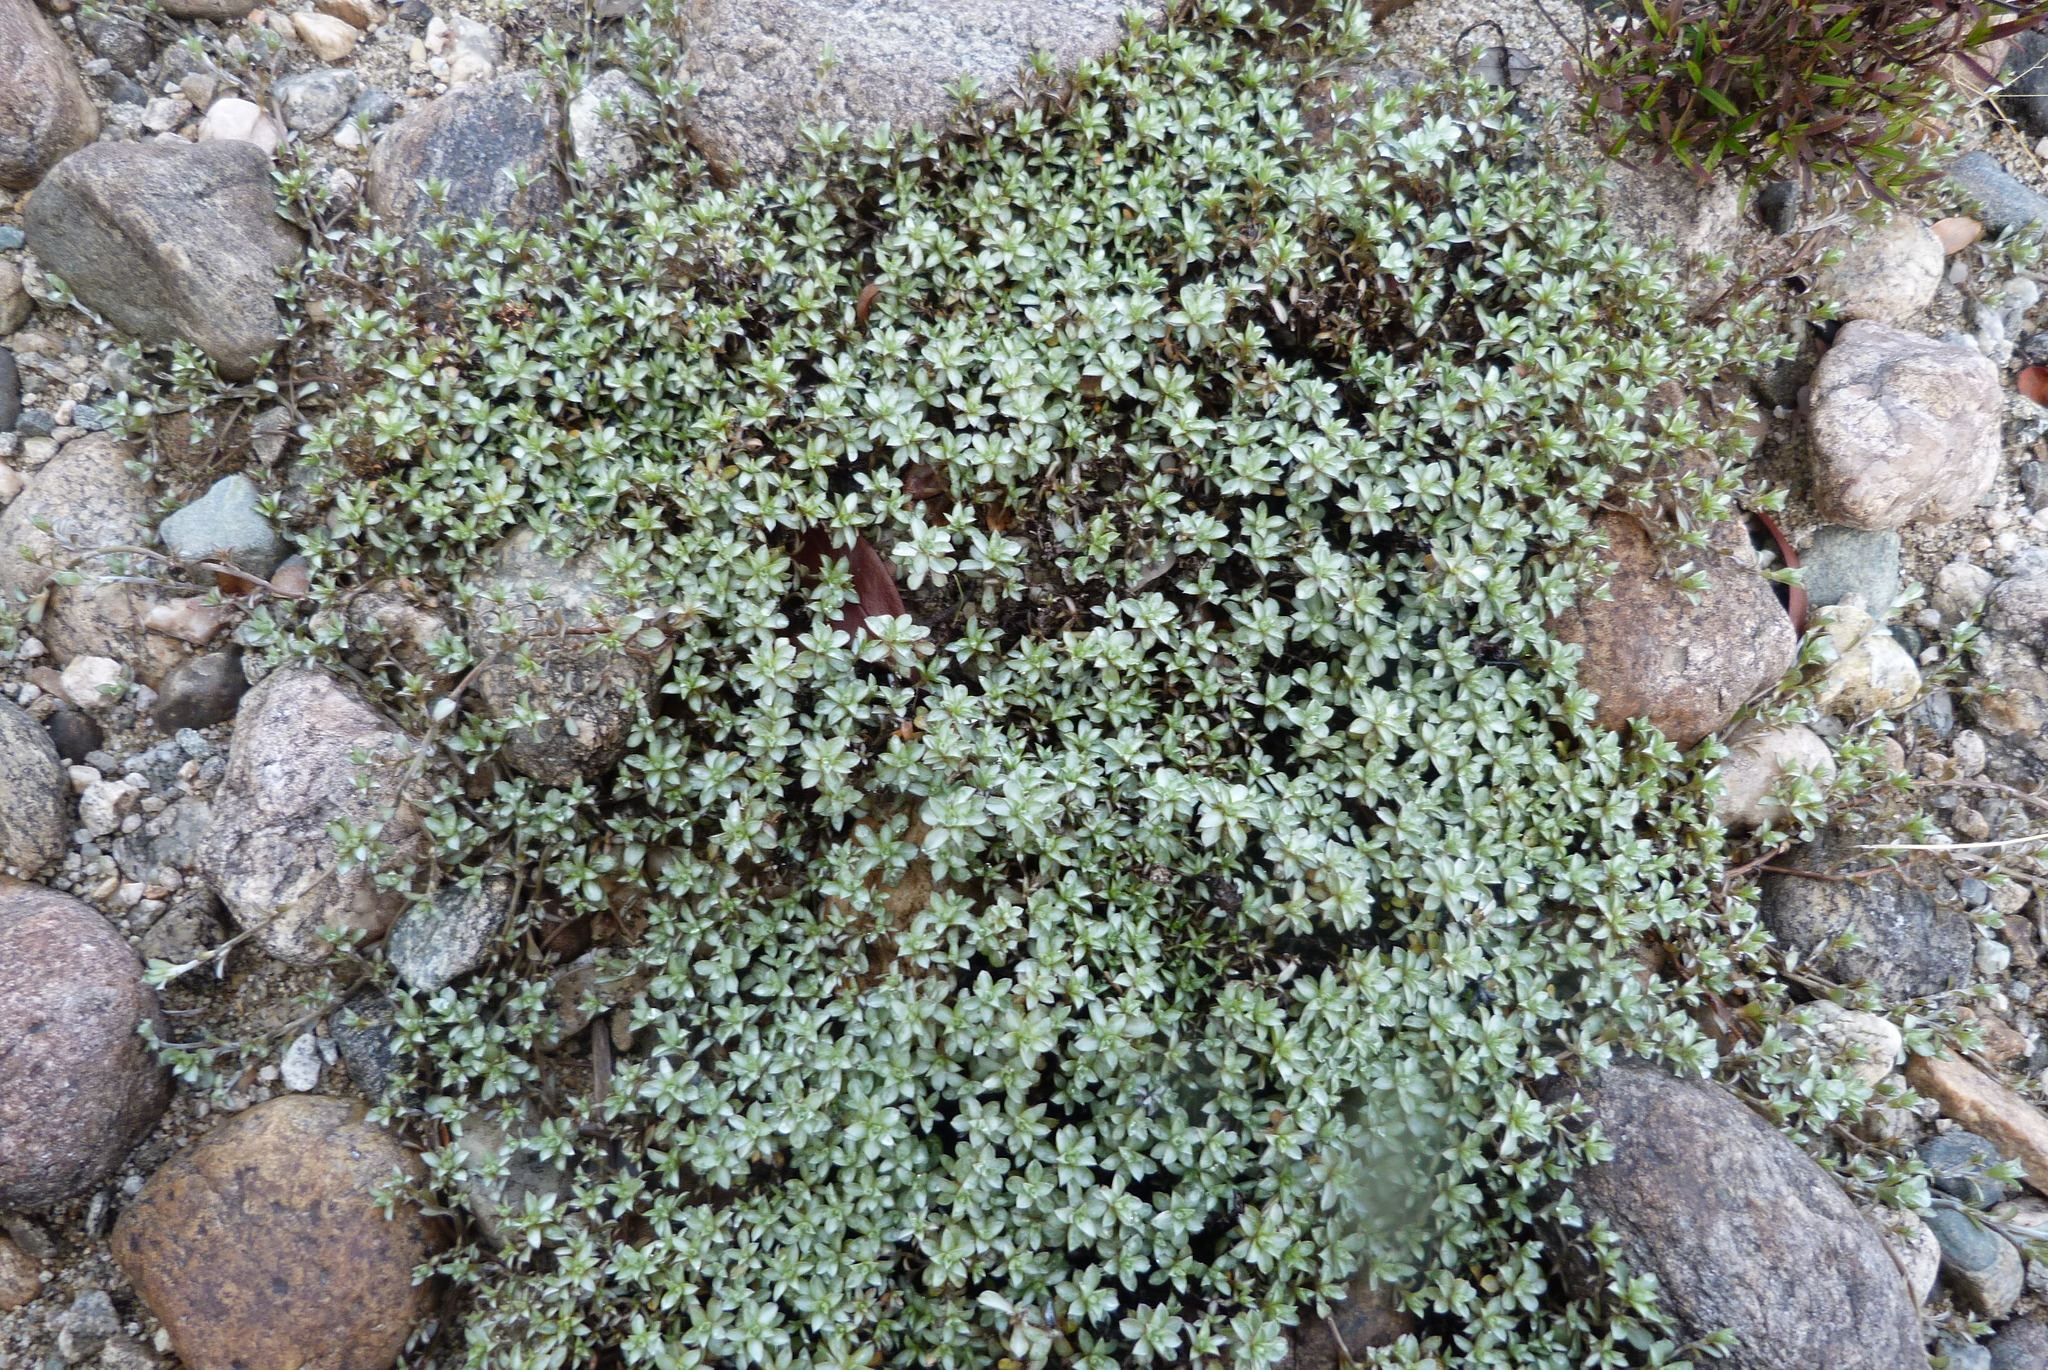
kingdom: Plantae
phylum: Tracheophyta
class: Magnoliopsida
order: Asterales
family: Asteraceae
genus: Raoulia
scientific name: Raoulia tenuicaulis
